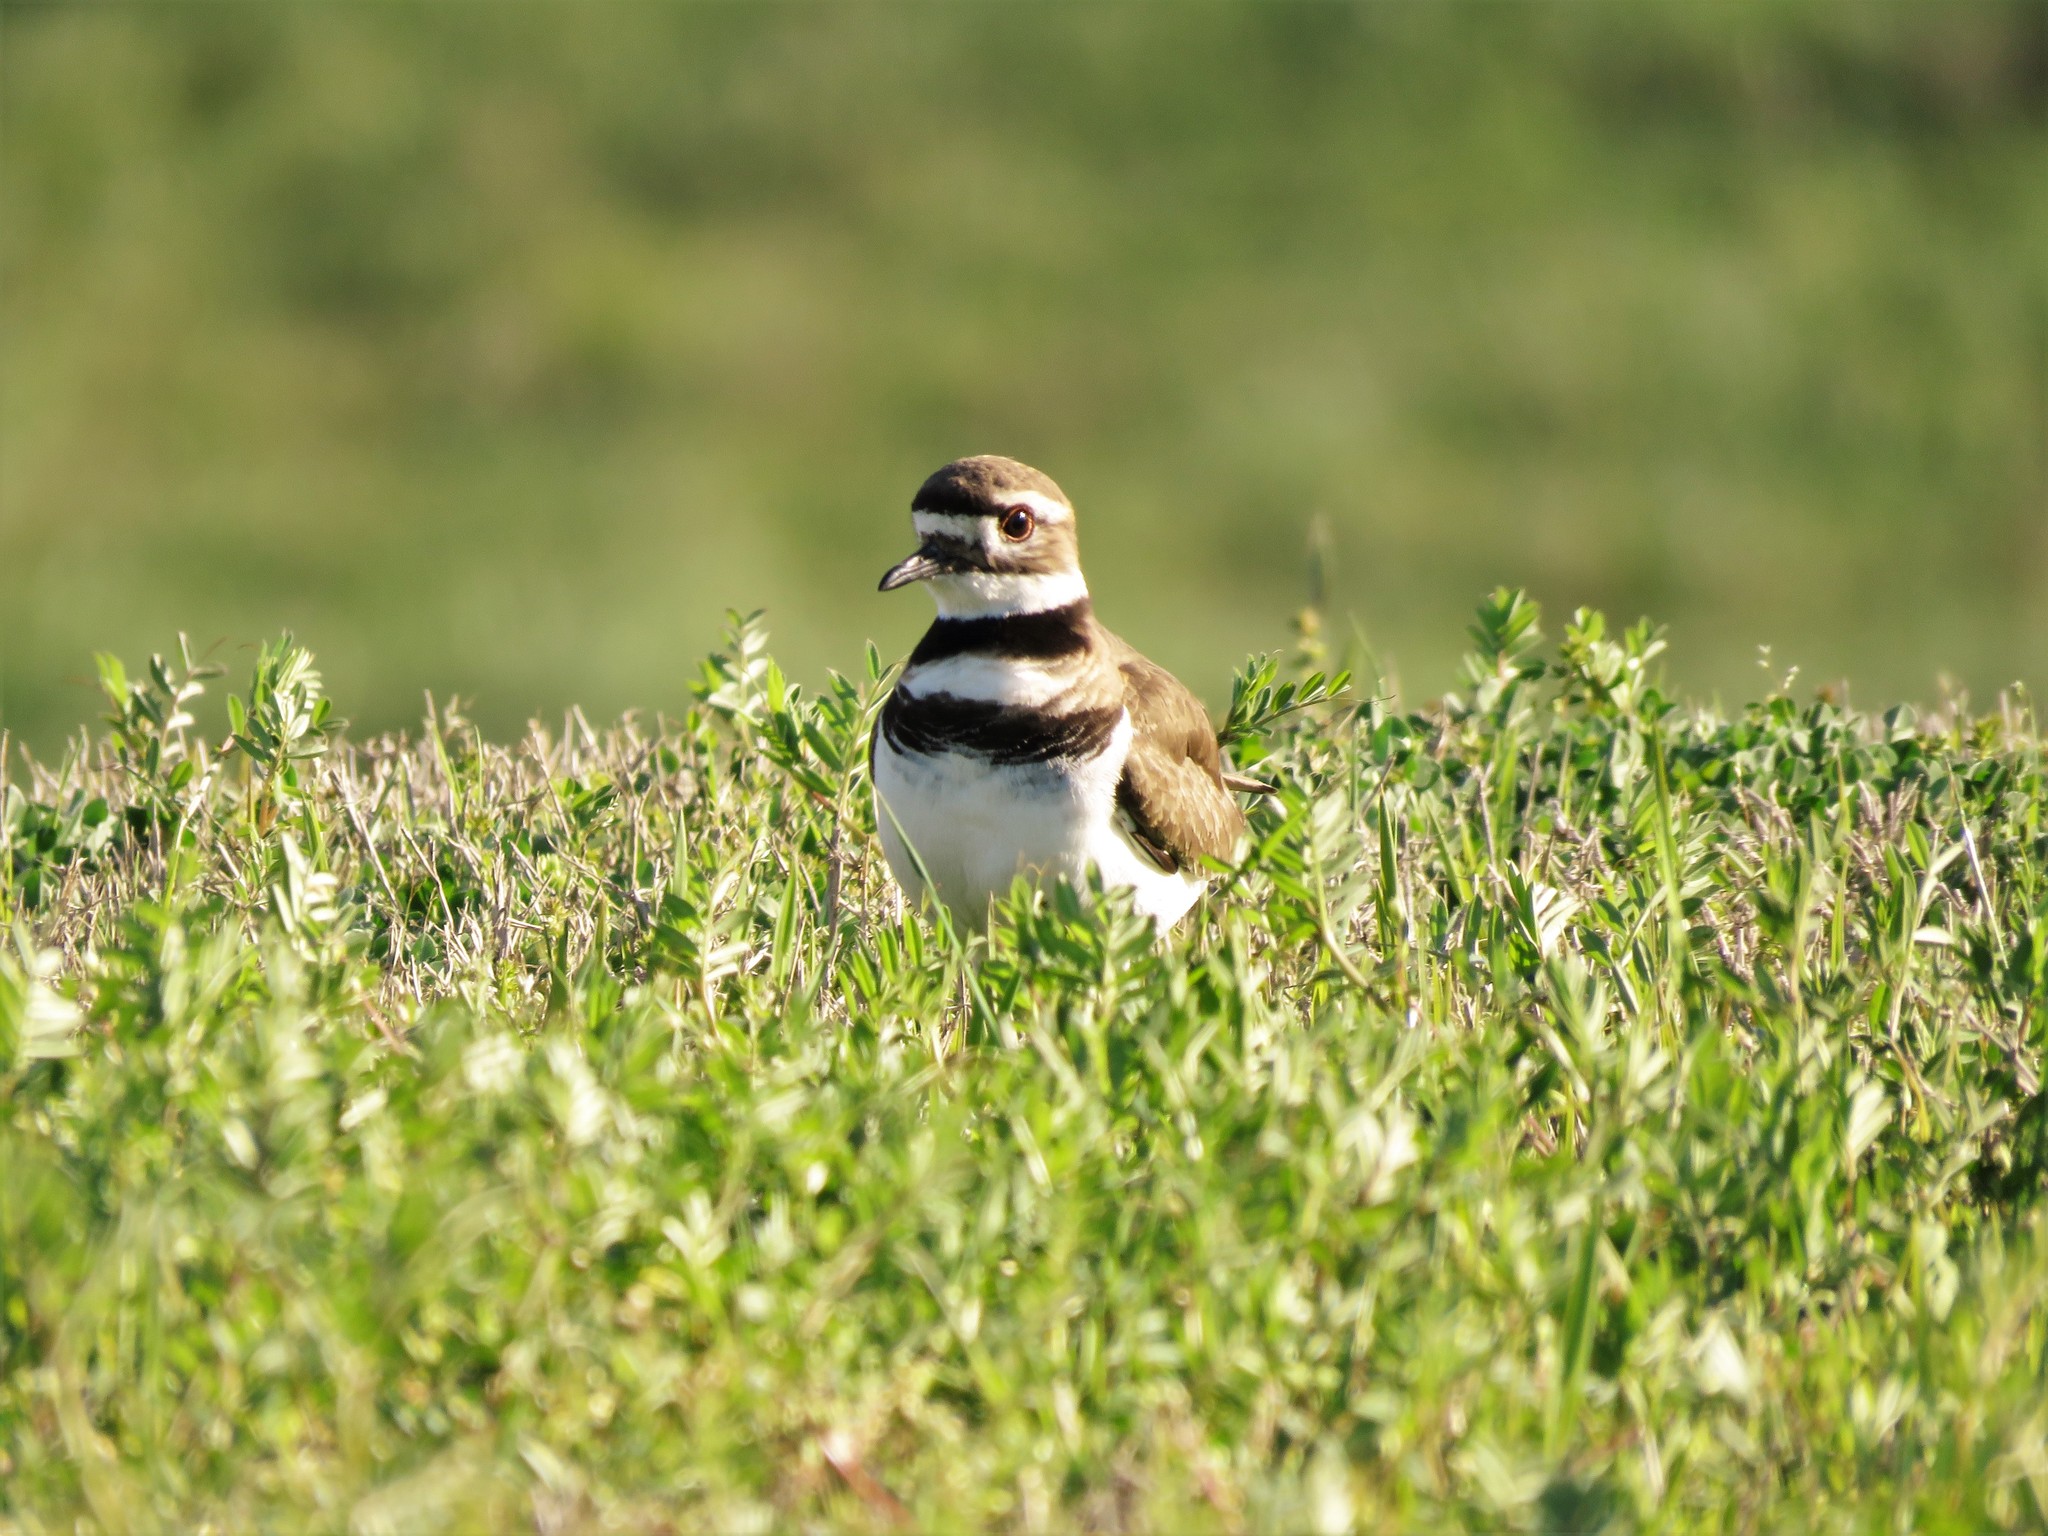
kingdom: Animalia
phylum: Chordata
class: Aves
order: Charadriiformes
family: Charadriidae
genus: Charadrius
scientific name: Charadrius vociferus
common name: Killdeer
